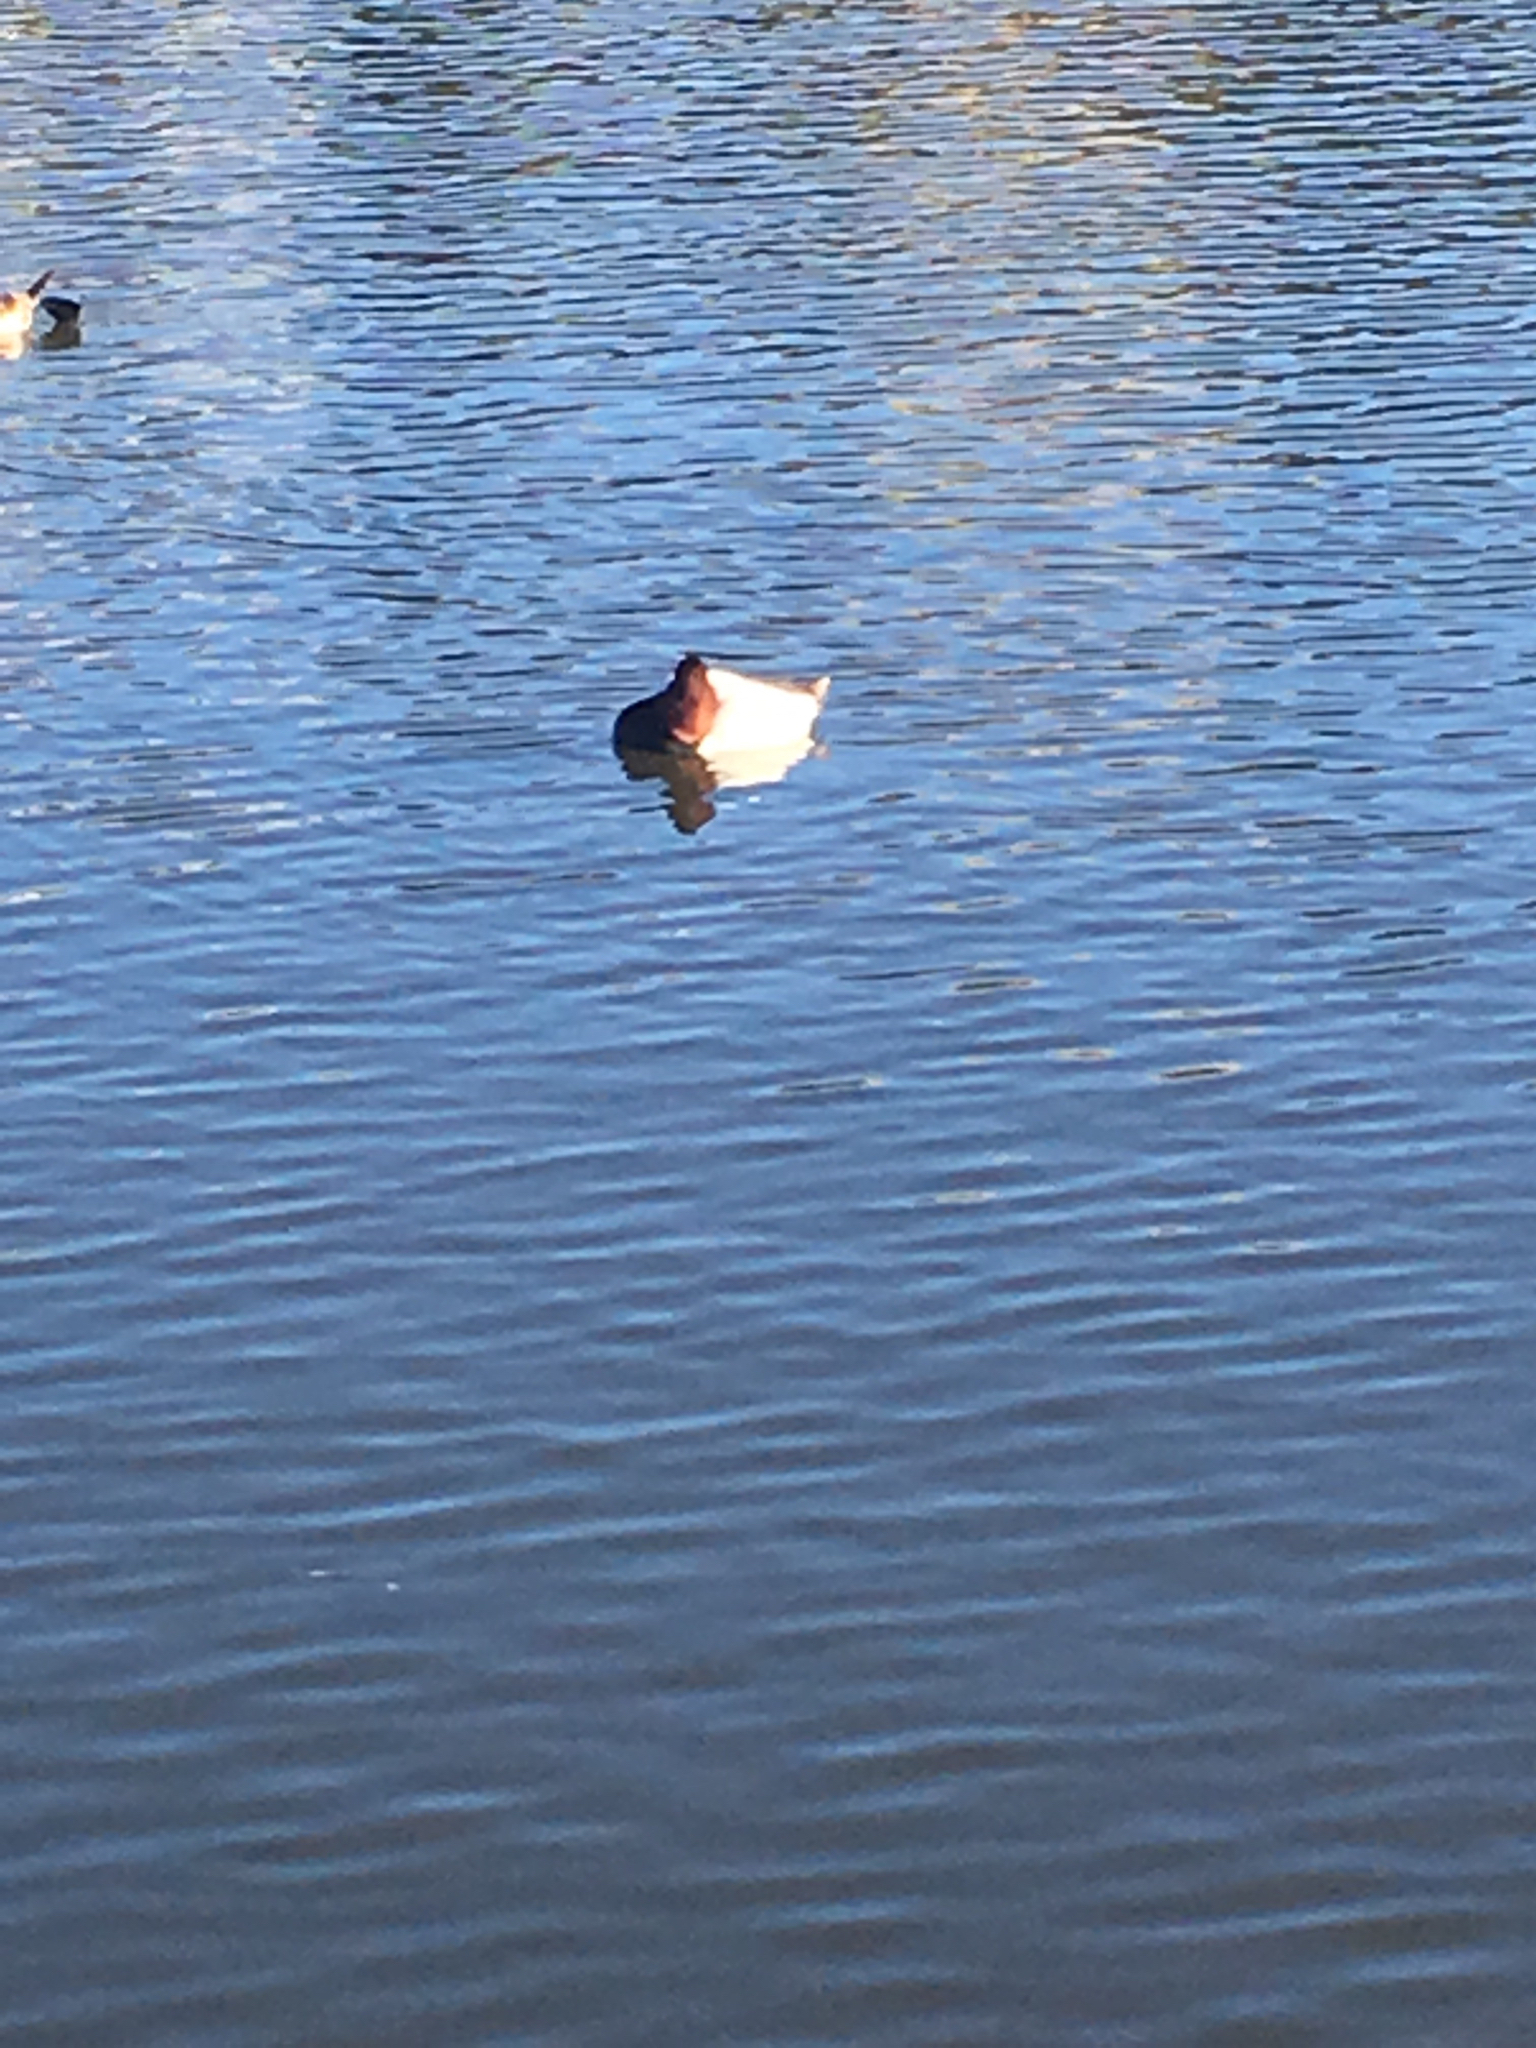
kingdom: Animalia
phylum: Chordata
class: Aves
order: Anseriformes
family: Anatidae
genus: Aythya
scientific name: Aythya valisineria
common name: Canvasback
